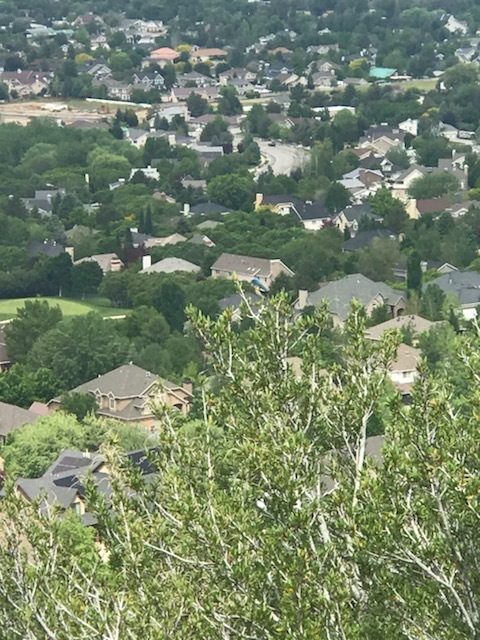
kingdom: Animalia
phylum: Chordata
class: Aves
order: Passeriformes
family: Cardinalidae
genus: Passerina
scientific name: Passerina amoena
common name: Lazuli bunting
